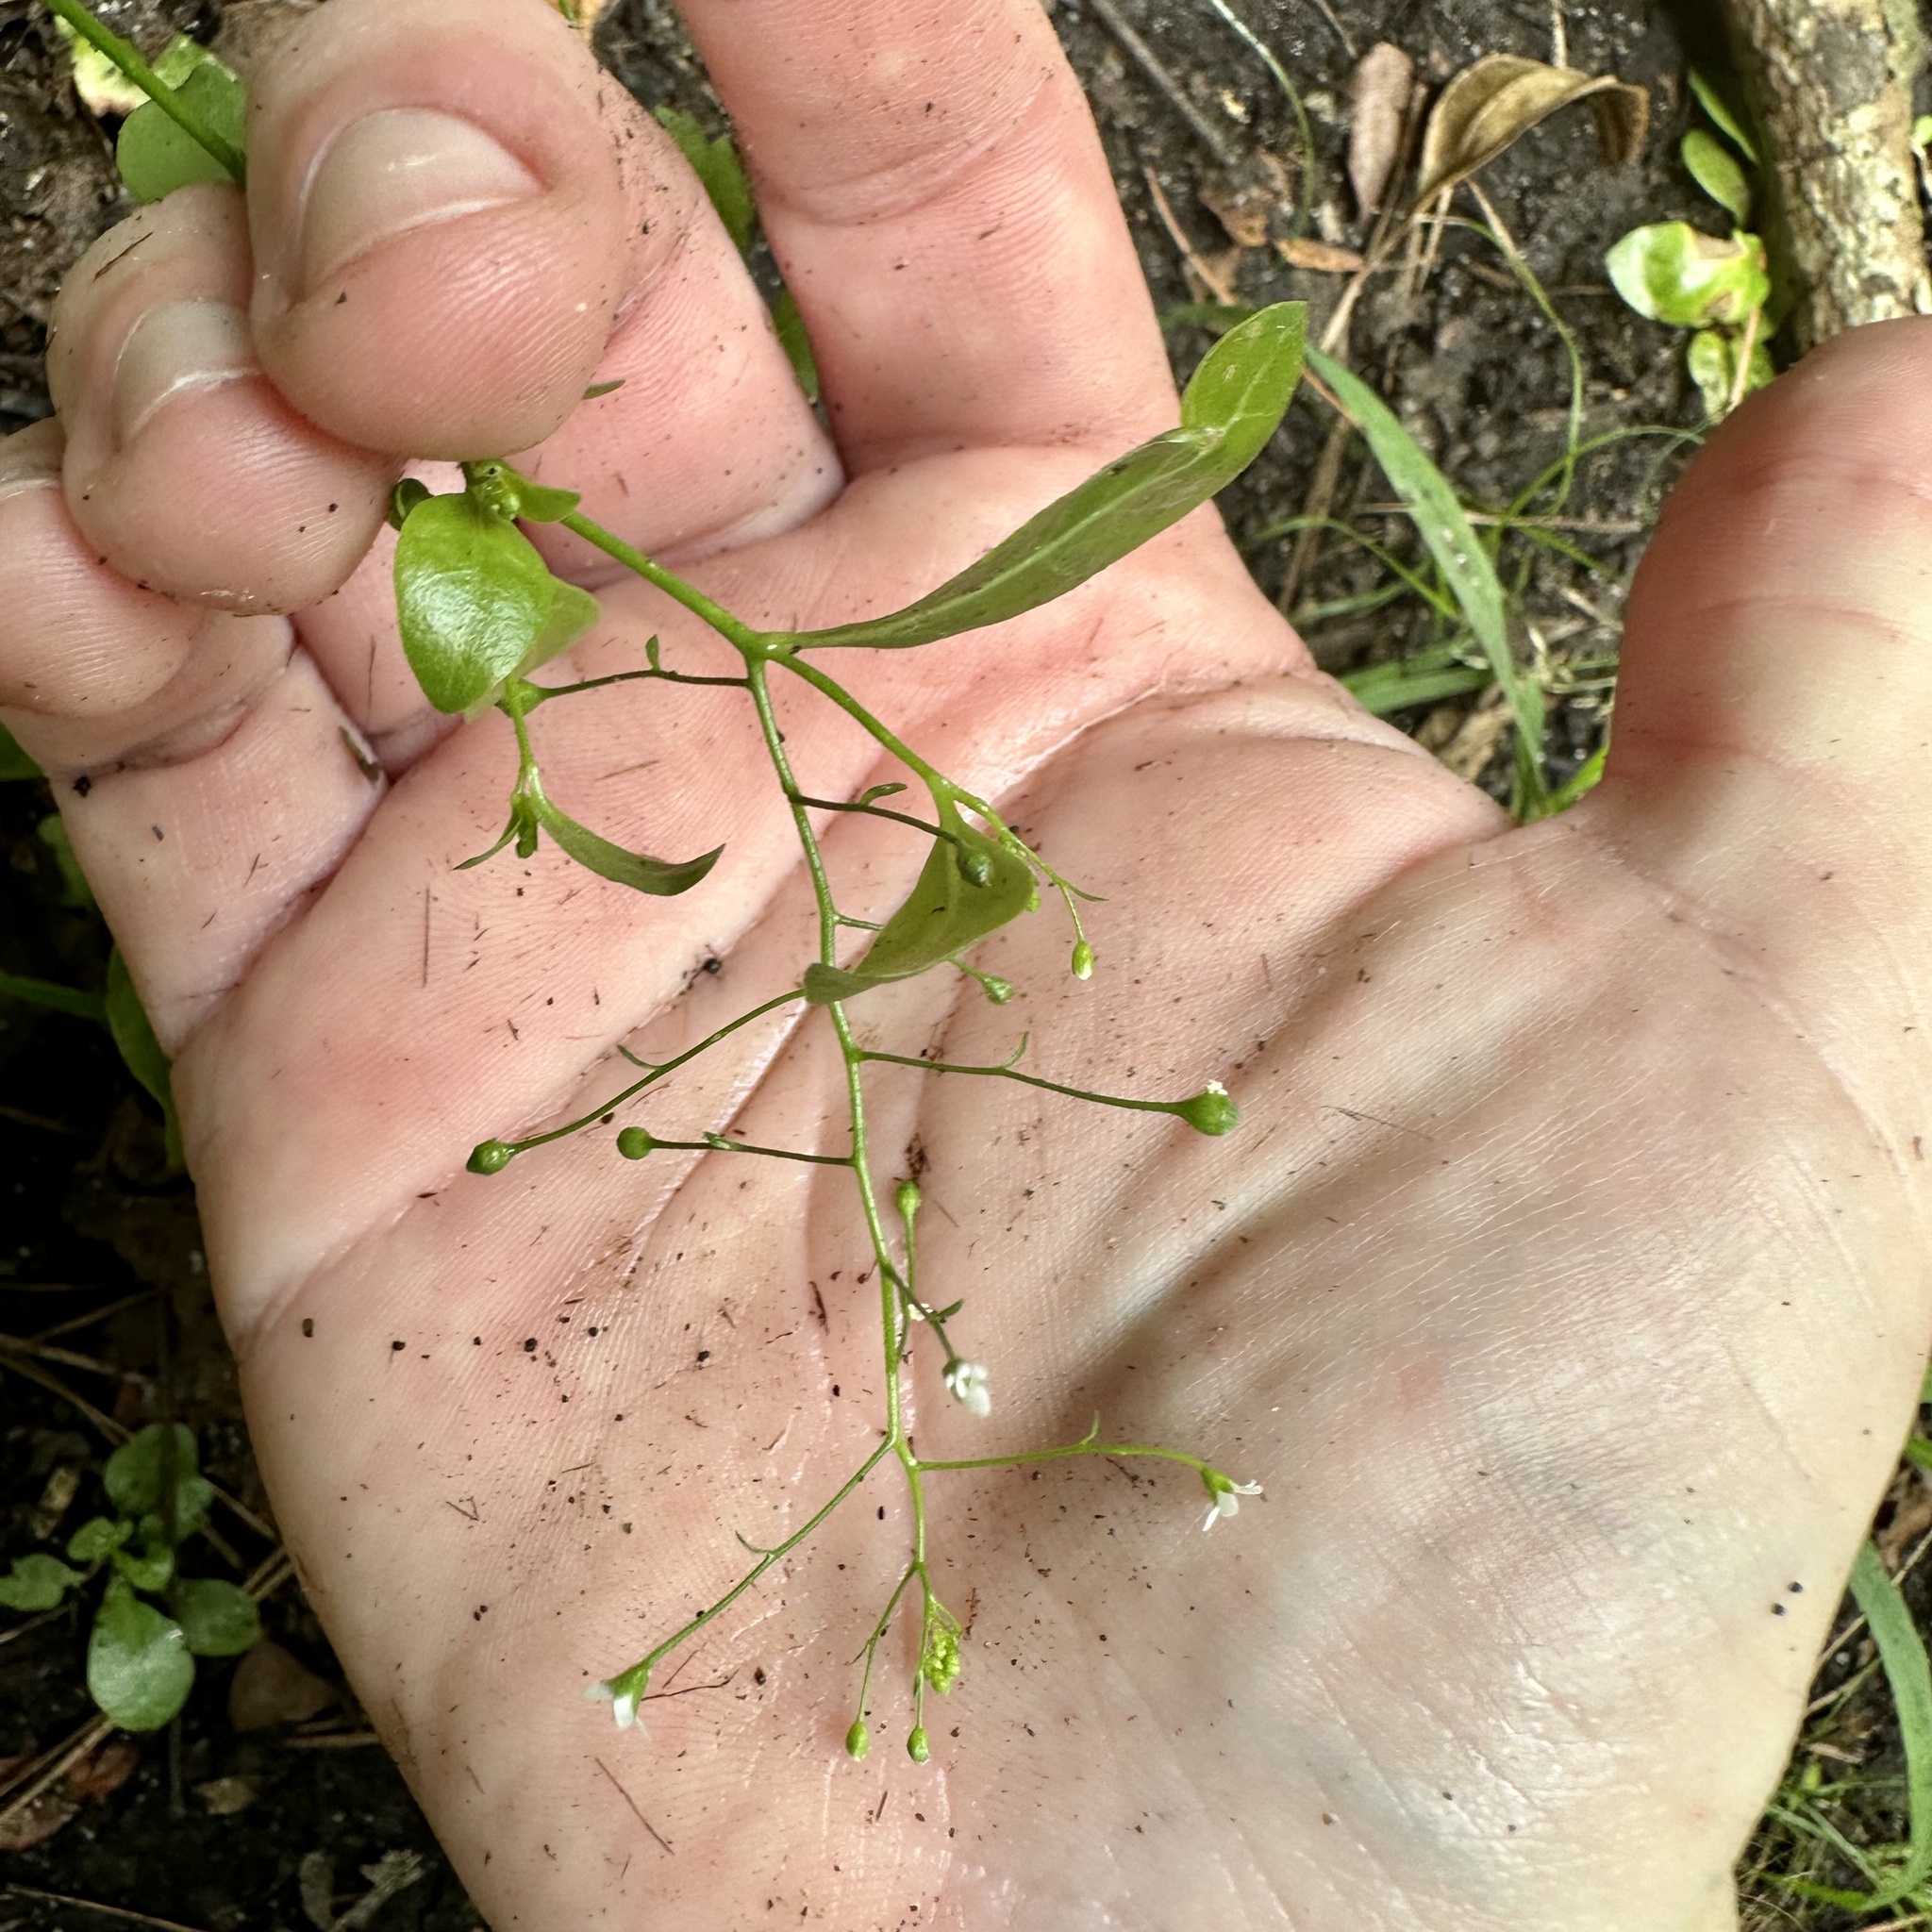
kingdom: Plantae
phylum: Tracheophyta
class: Magnoliopsida
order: Ericales
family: Primulaceae
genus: Samolus
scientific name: Samolus parviflorus
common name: False water pimpernel
